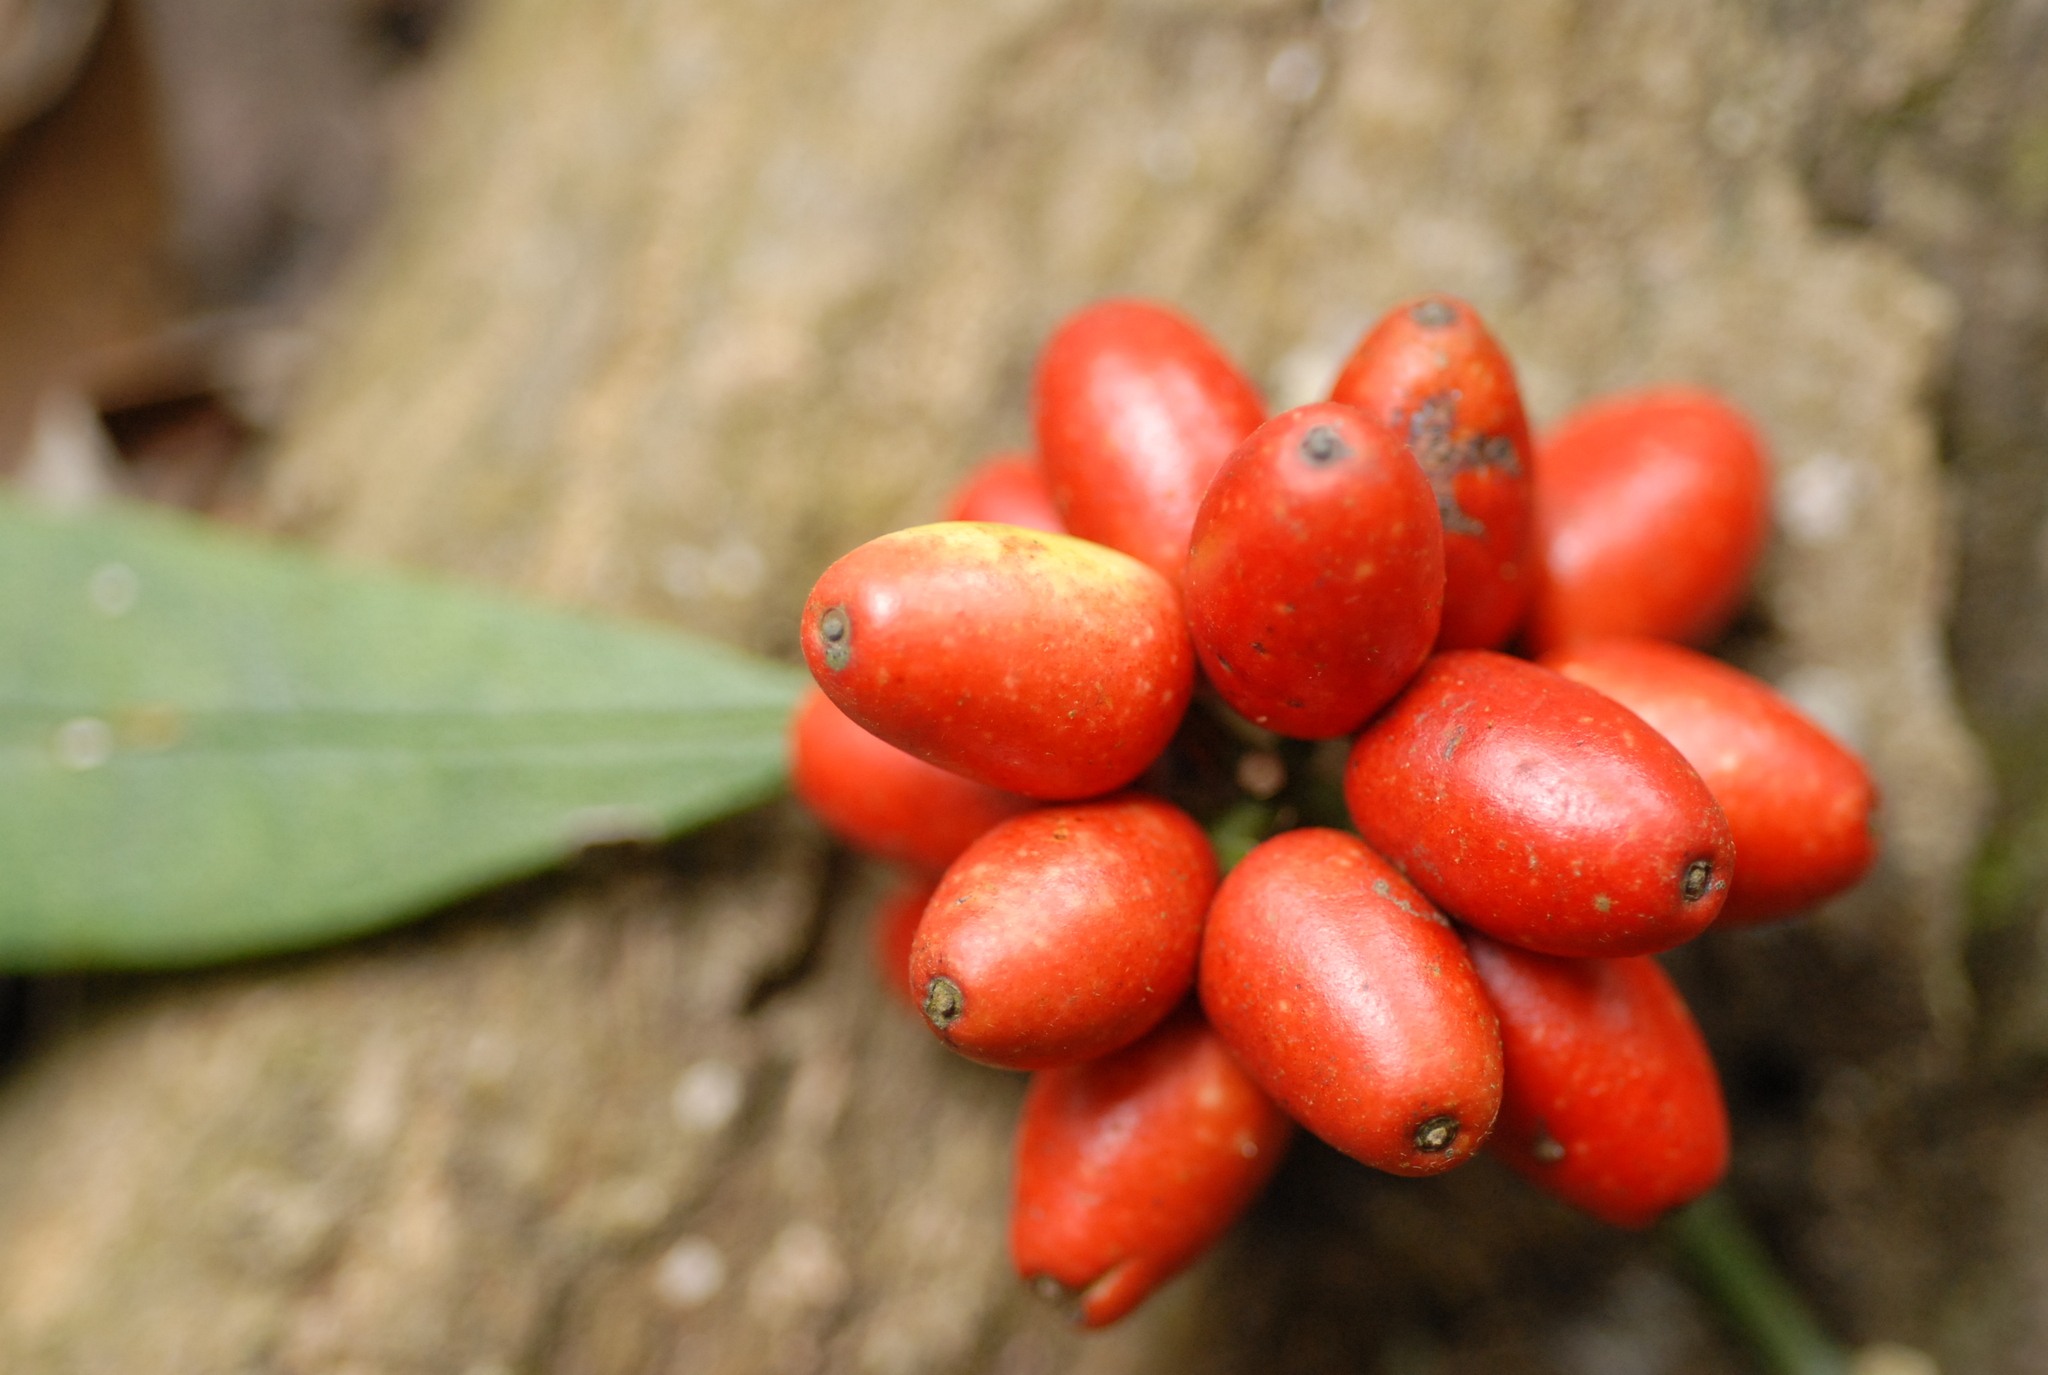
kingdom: Plantae
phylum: Tracheophyta
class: Magnoliopsida
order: Garryales
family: Garryaceae
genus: Aucuba
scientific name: Aucuba japonica
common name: Spotted-laurel
